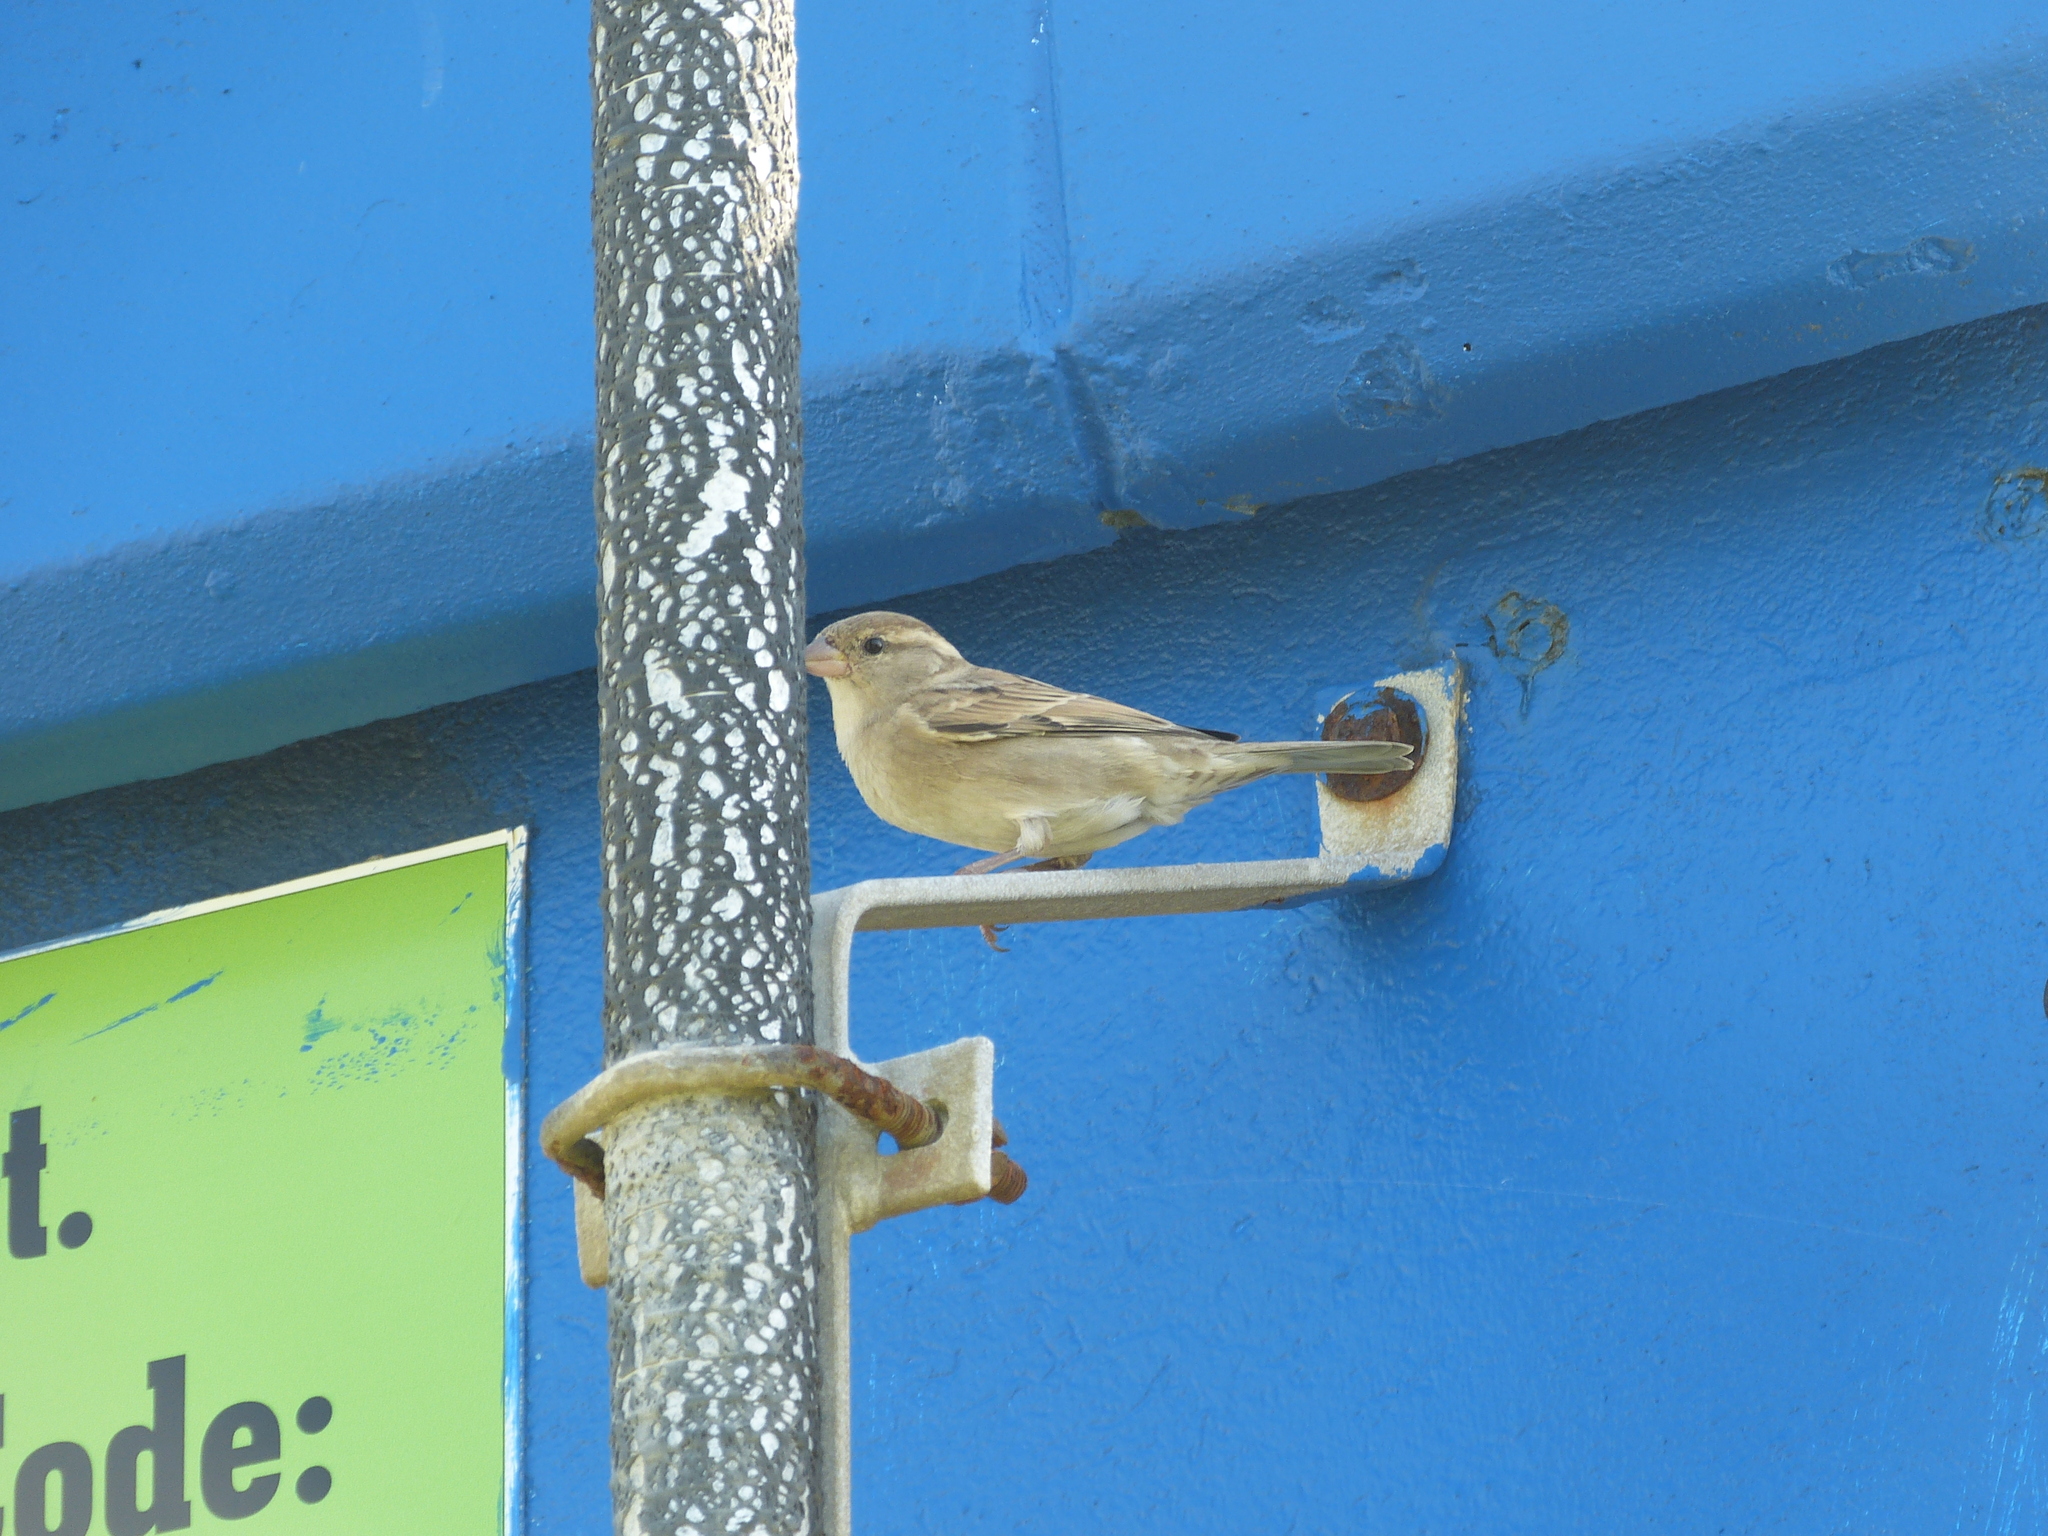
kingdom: Animalia
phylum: Chordata
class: Aves
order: Passeriformes
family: Passeridae
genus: Passer
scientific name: Passer domesticus
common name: House sparrow
